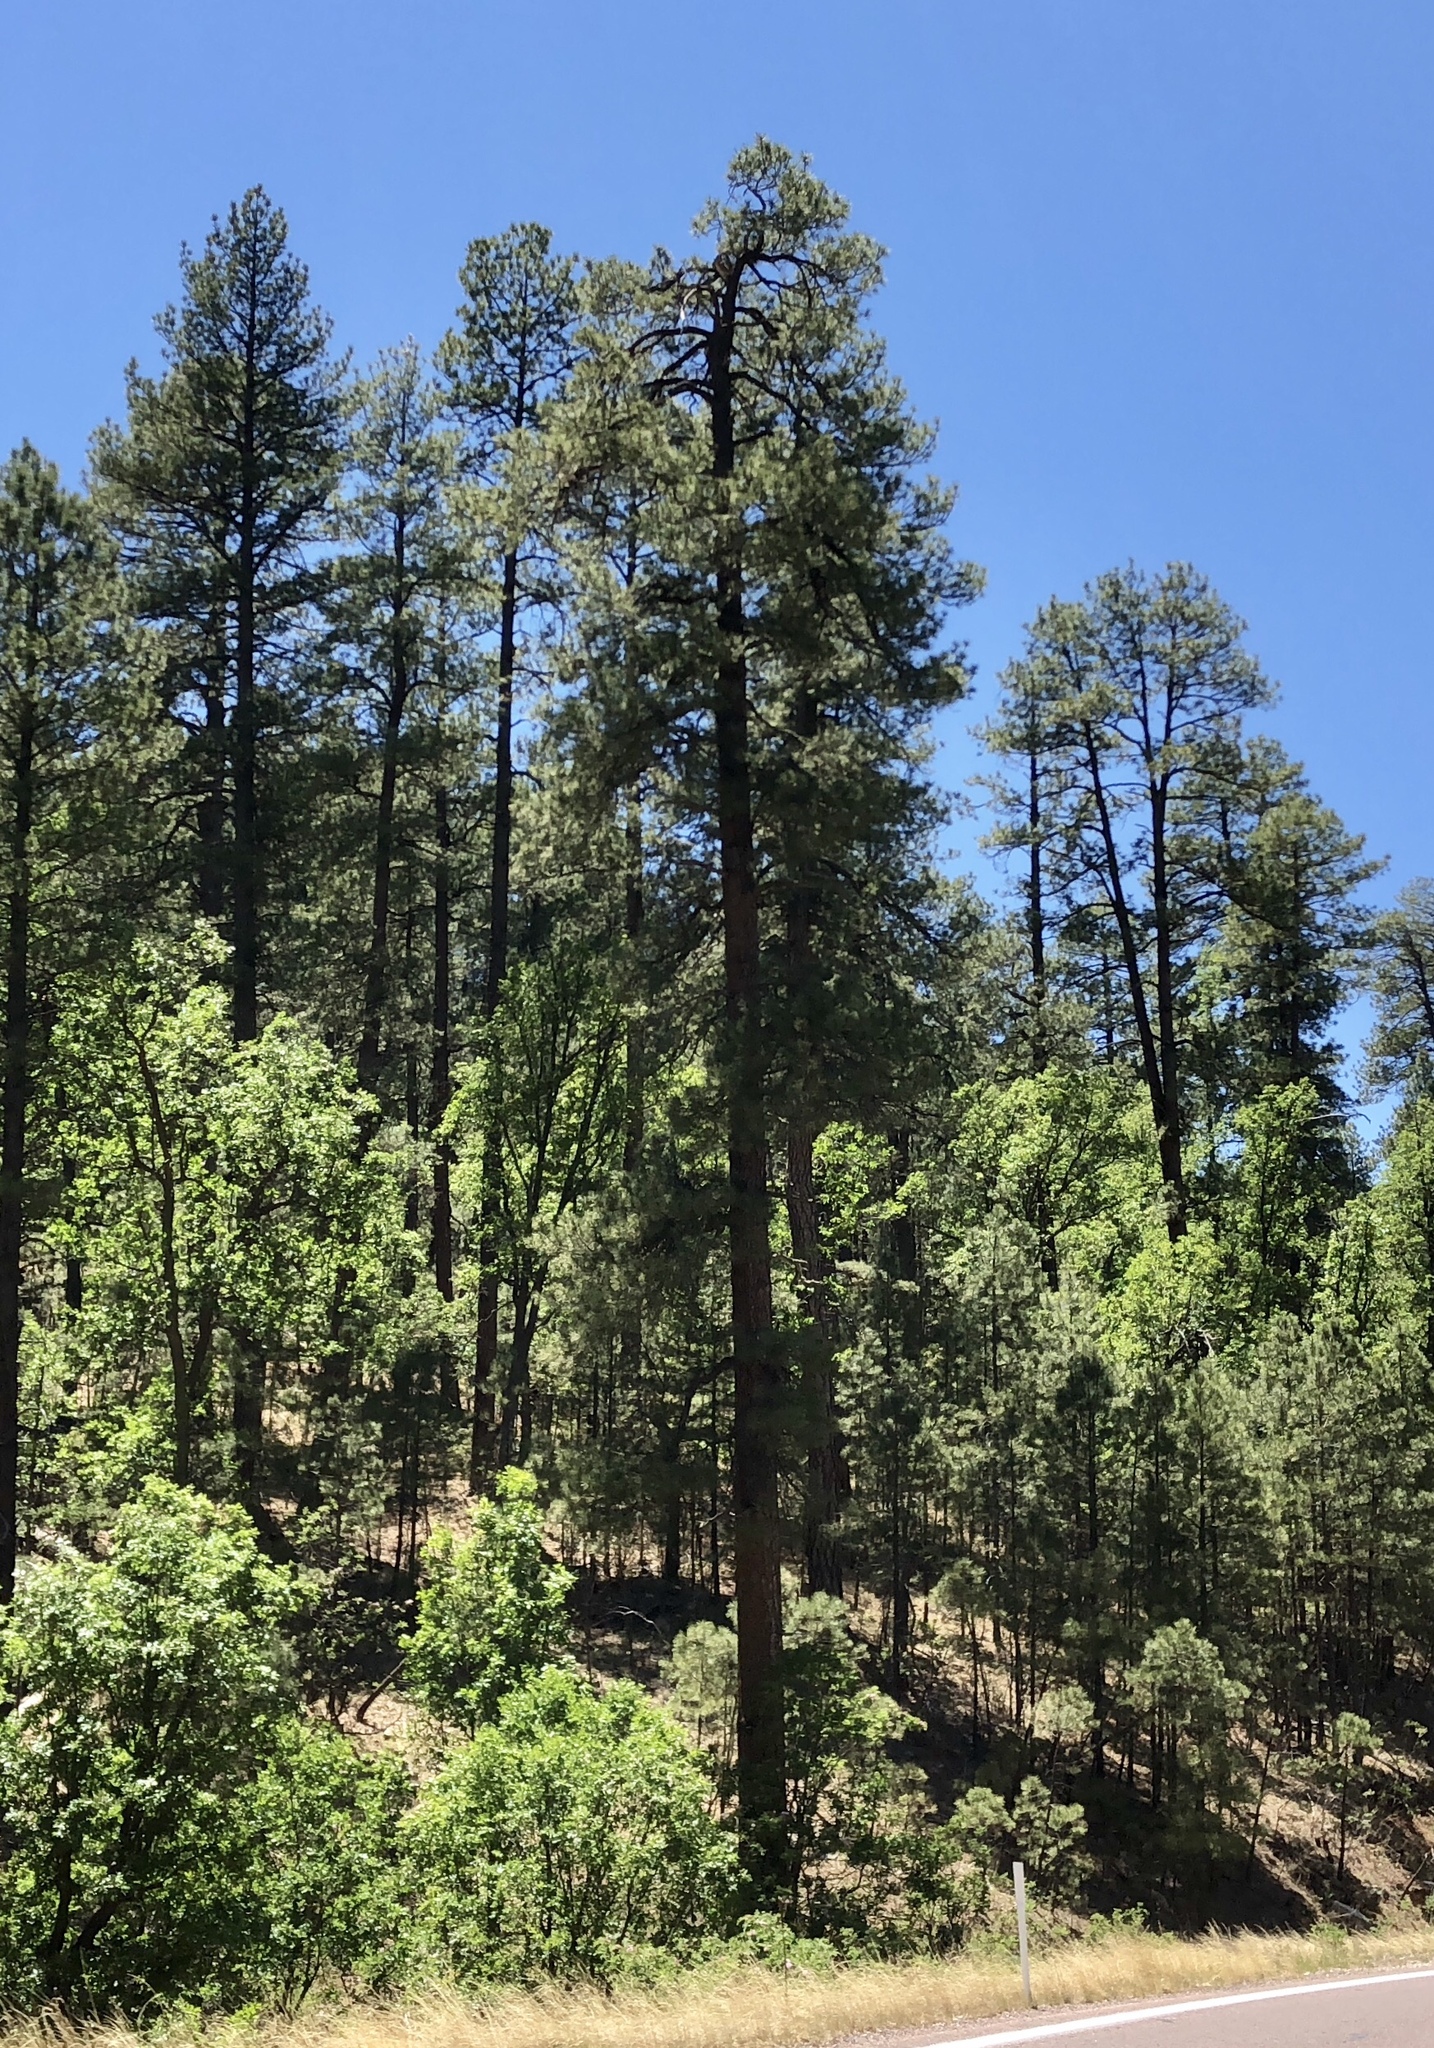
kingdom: Plantae
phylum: Tracheophyta
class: Pinopsida
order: Pinales
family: Pinaceae
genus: Pinus
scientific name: Pinus ponderosa
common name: Western yellow-pine
